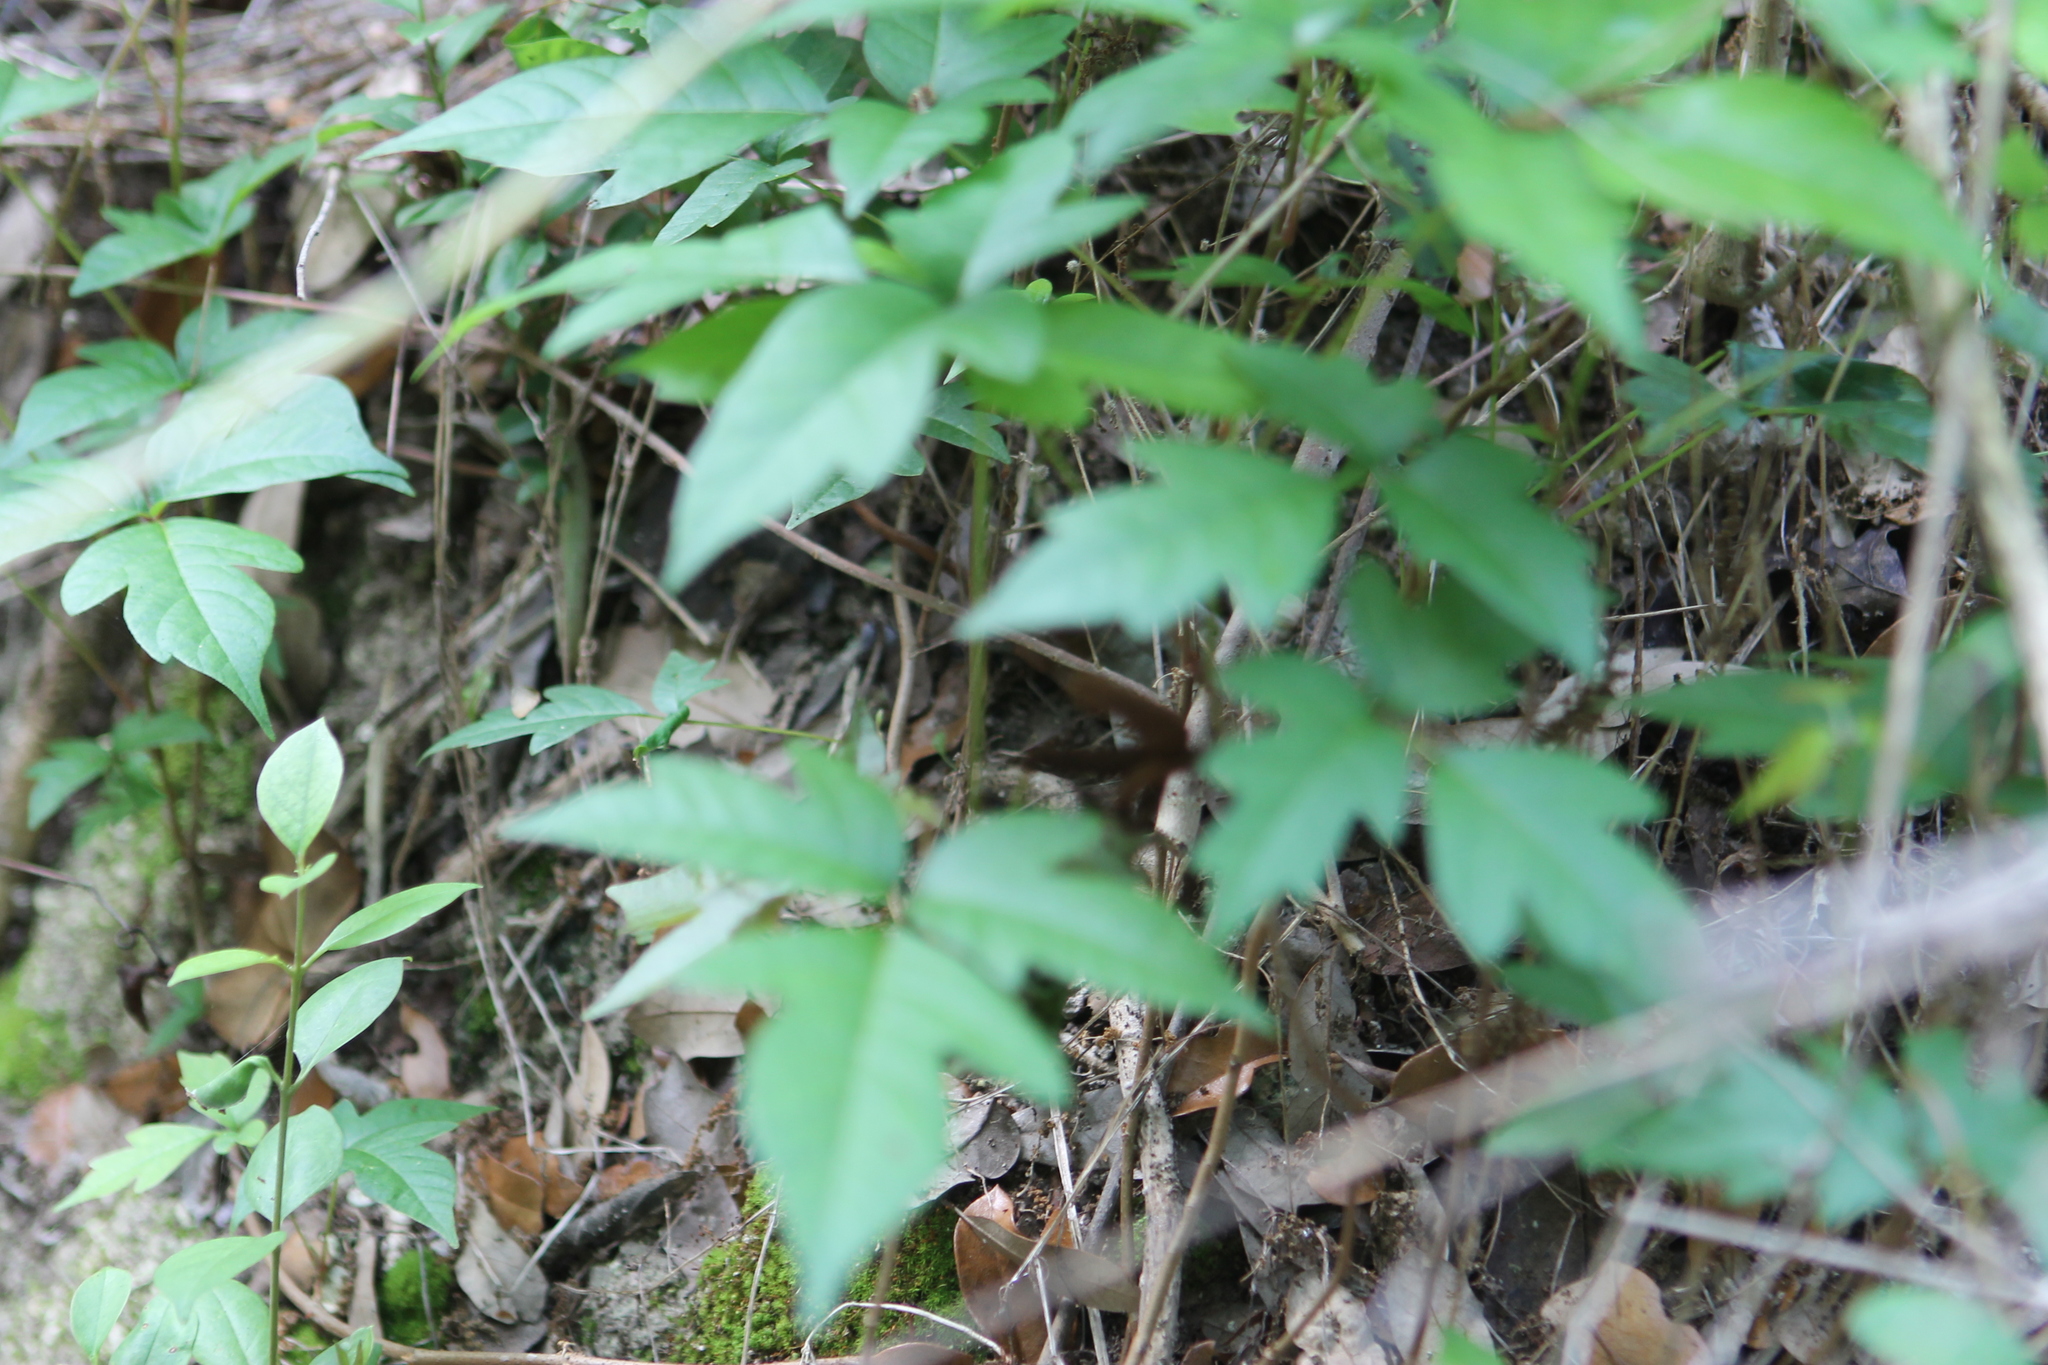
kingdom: Plantae
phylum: Tracheophyta
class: Magnoliopsida
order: Sapindales
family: Anacardiaceae
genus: Toxicodendron
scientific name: Toxicodendron radicans
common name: Poison ivy
